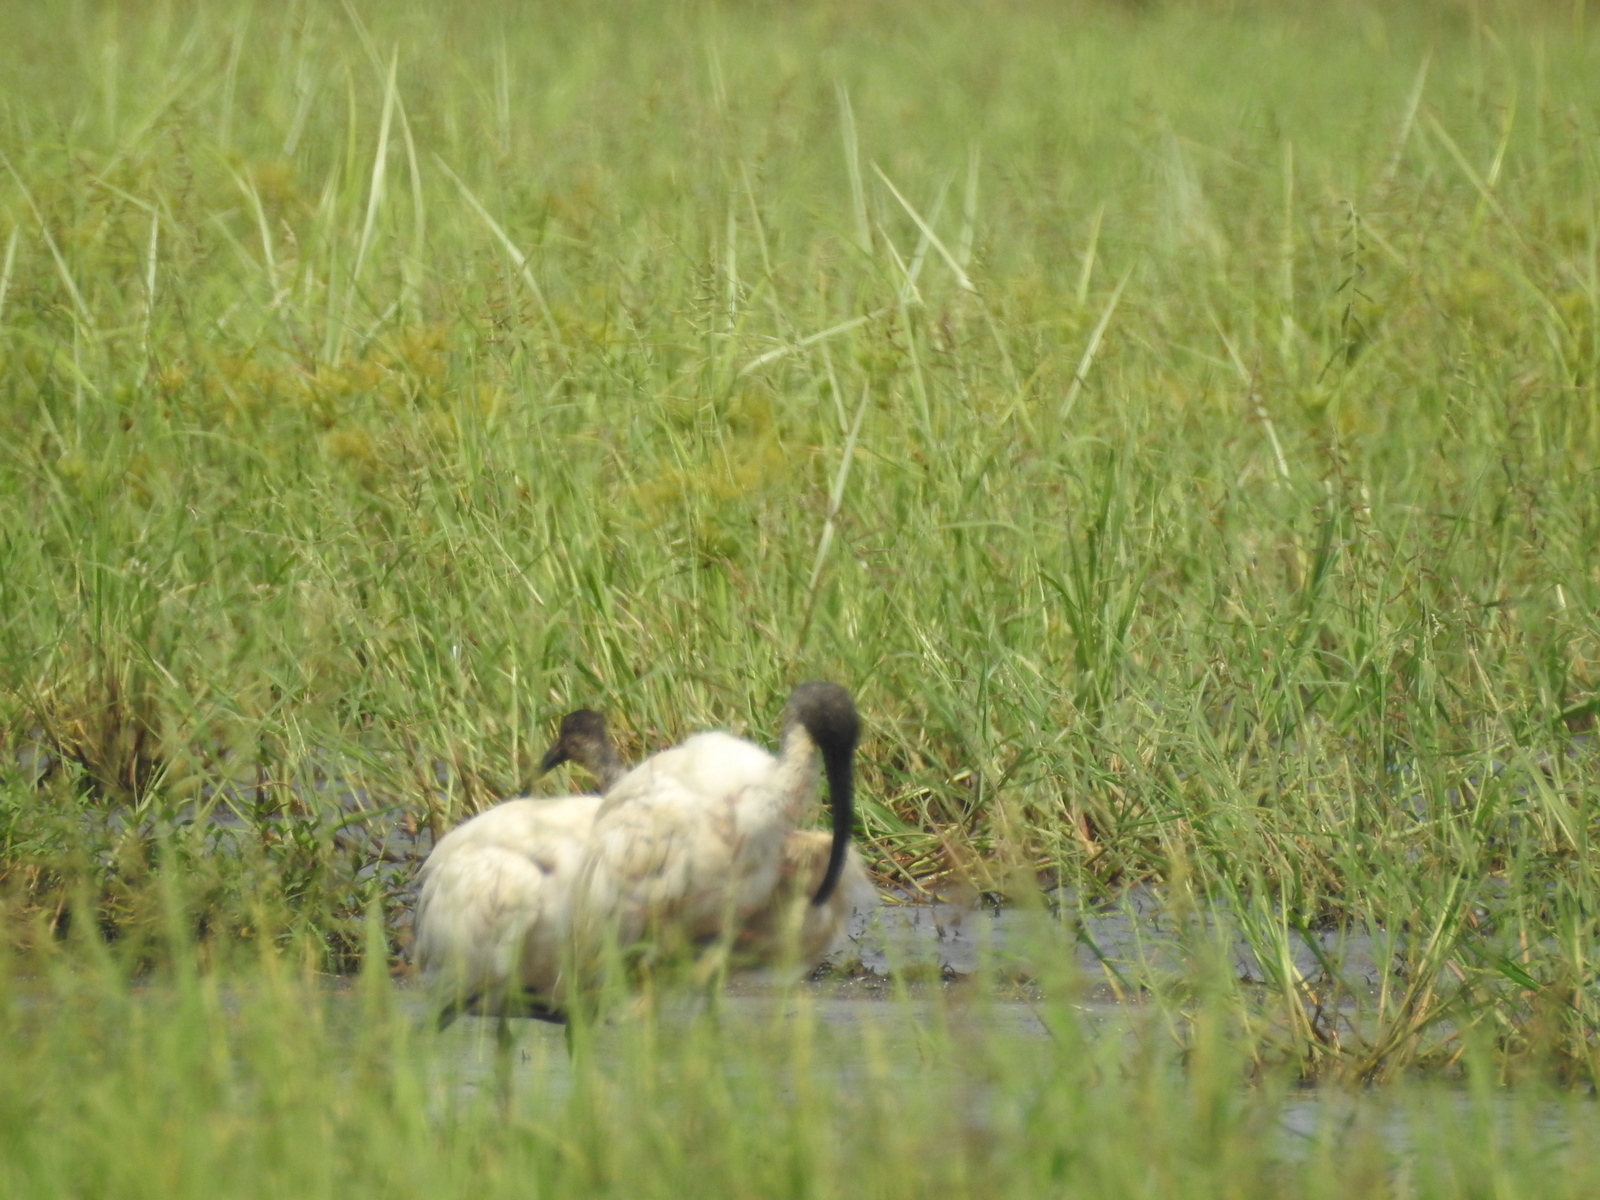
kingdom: Animalia
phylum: Chordata
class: Aves
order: Pelecaniformes
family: Threskiornithidae
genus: Threskiornis
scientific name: Threskiornis melanocephalus
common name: Black-headed ibis
